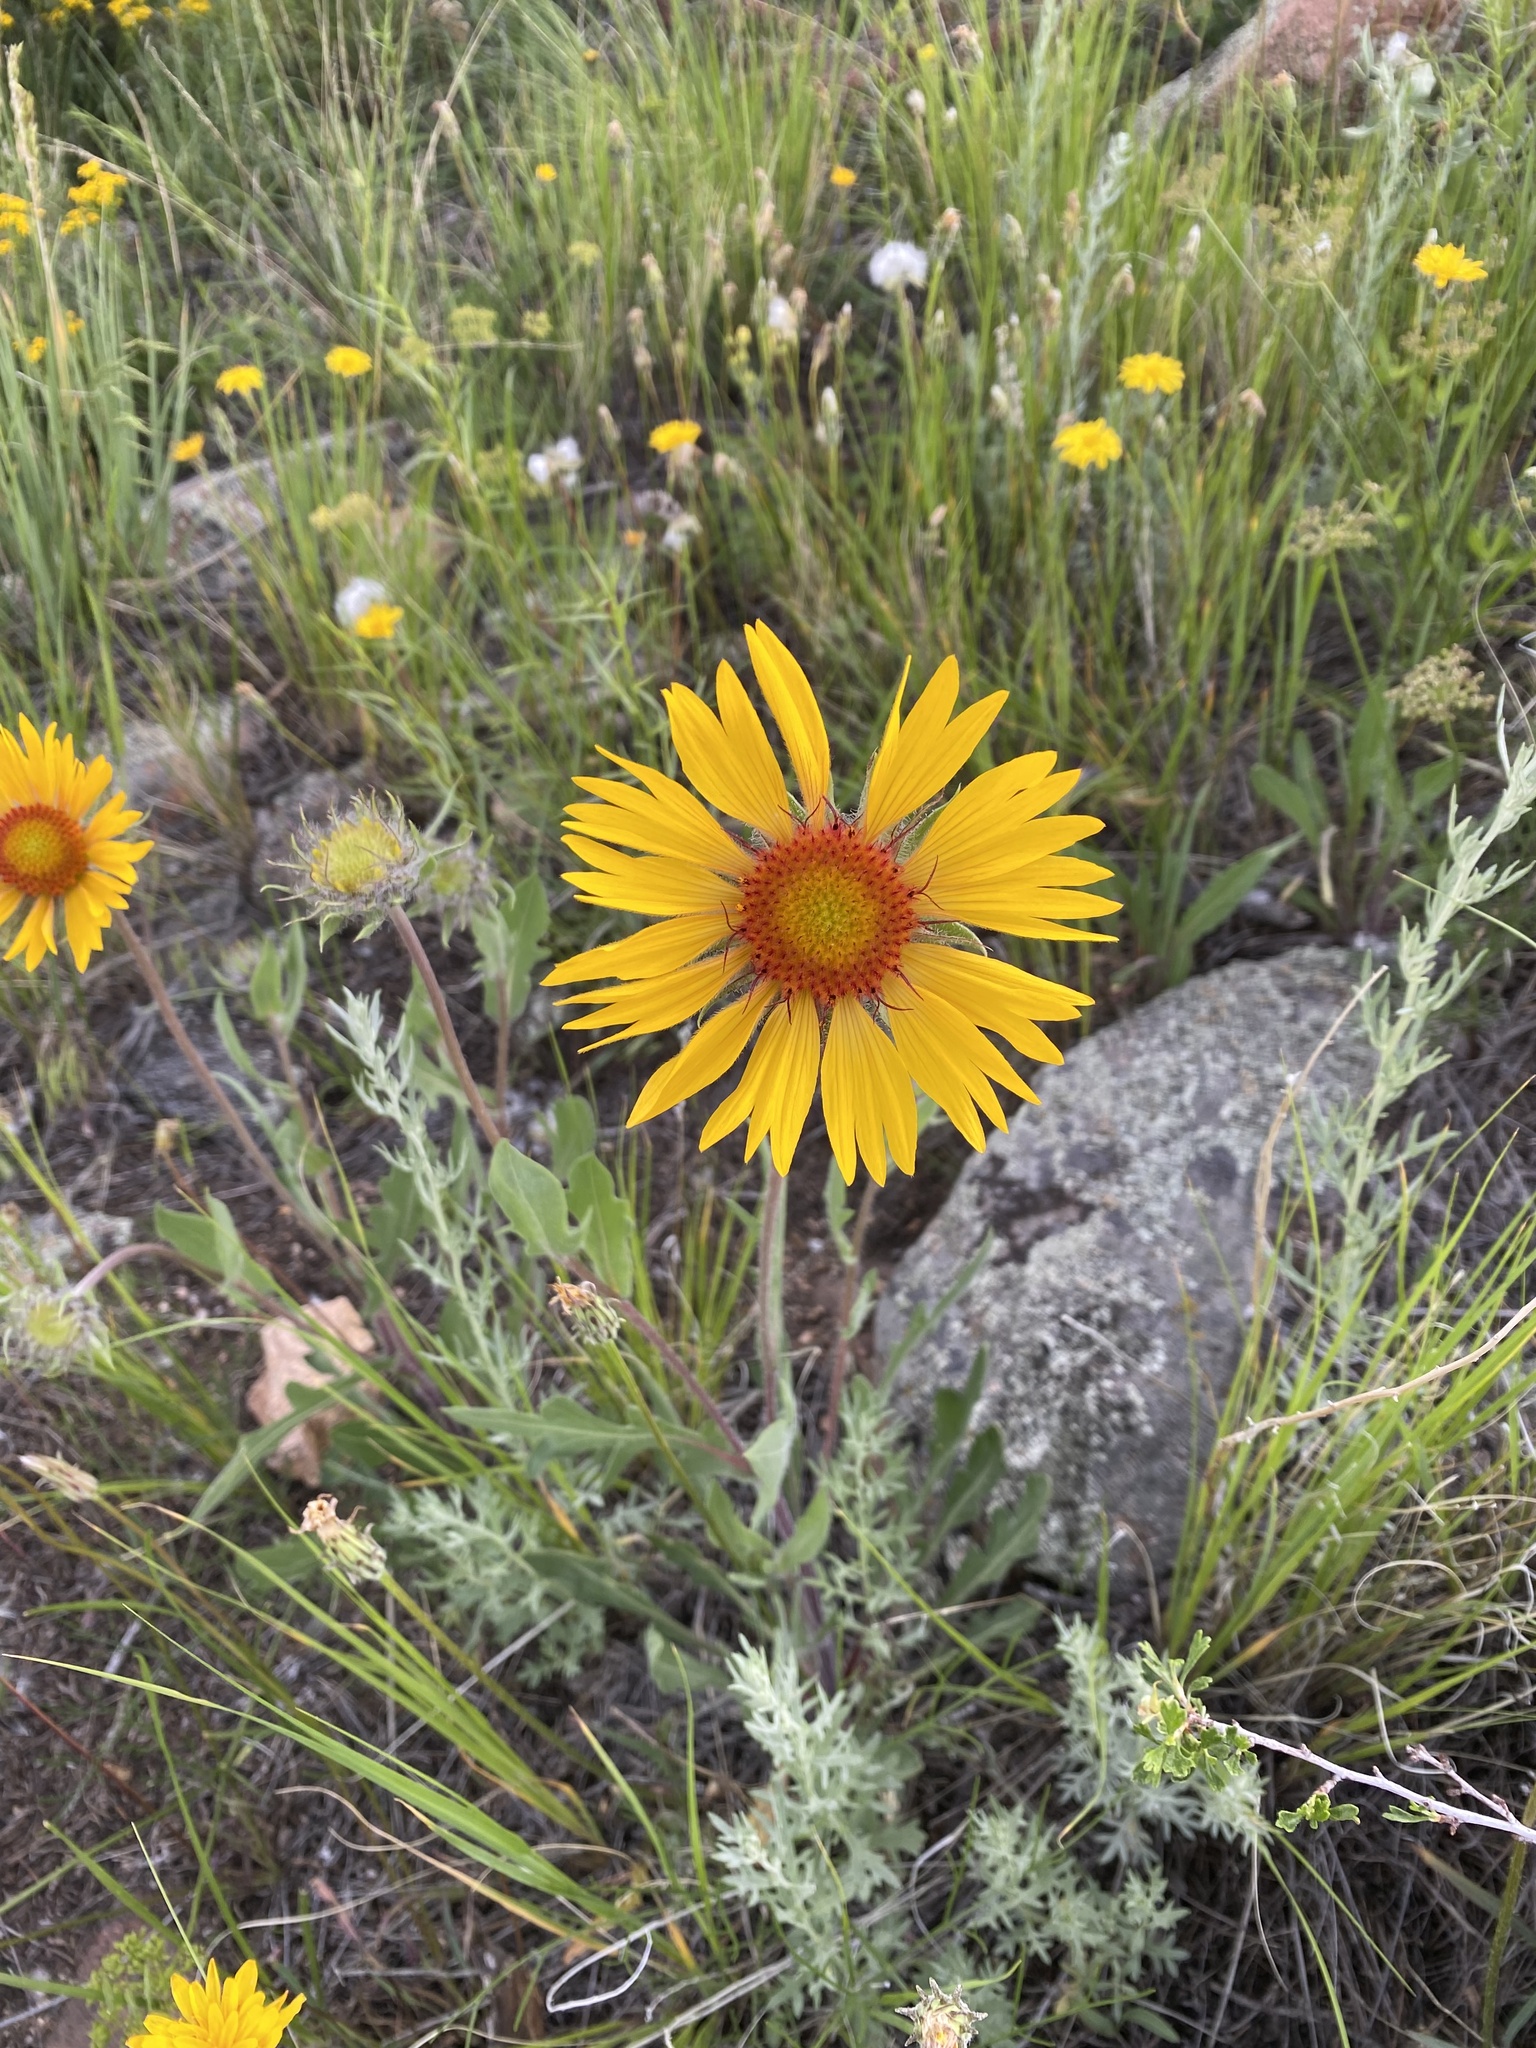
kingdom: Plantae
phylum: Tracheophyta
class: Magnoliopsida
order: Asterales
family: Asteraceae
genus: Gaillardia
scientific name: Gaillardia aristata
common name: Blanket-flower
